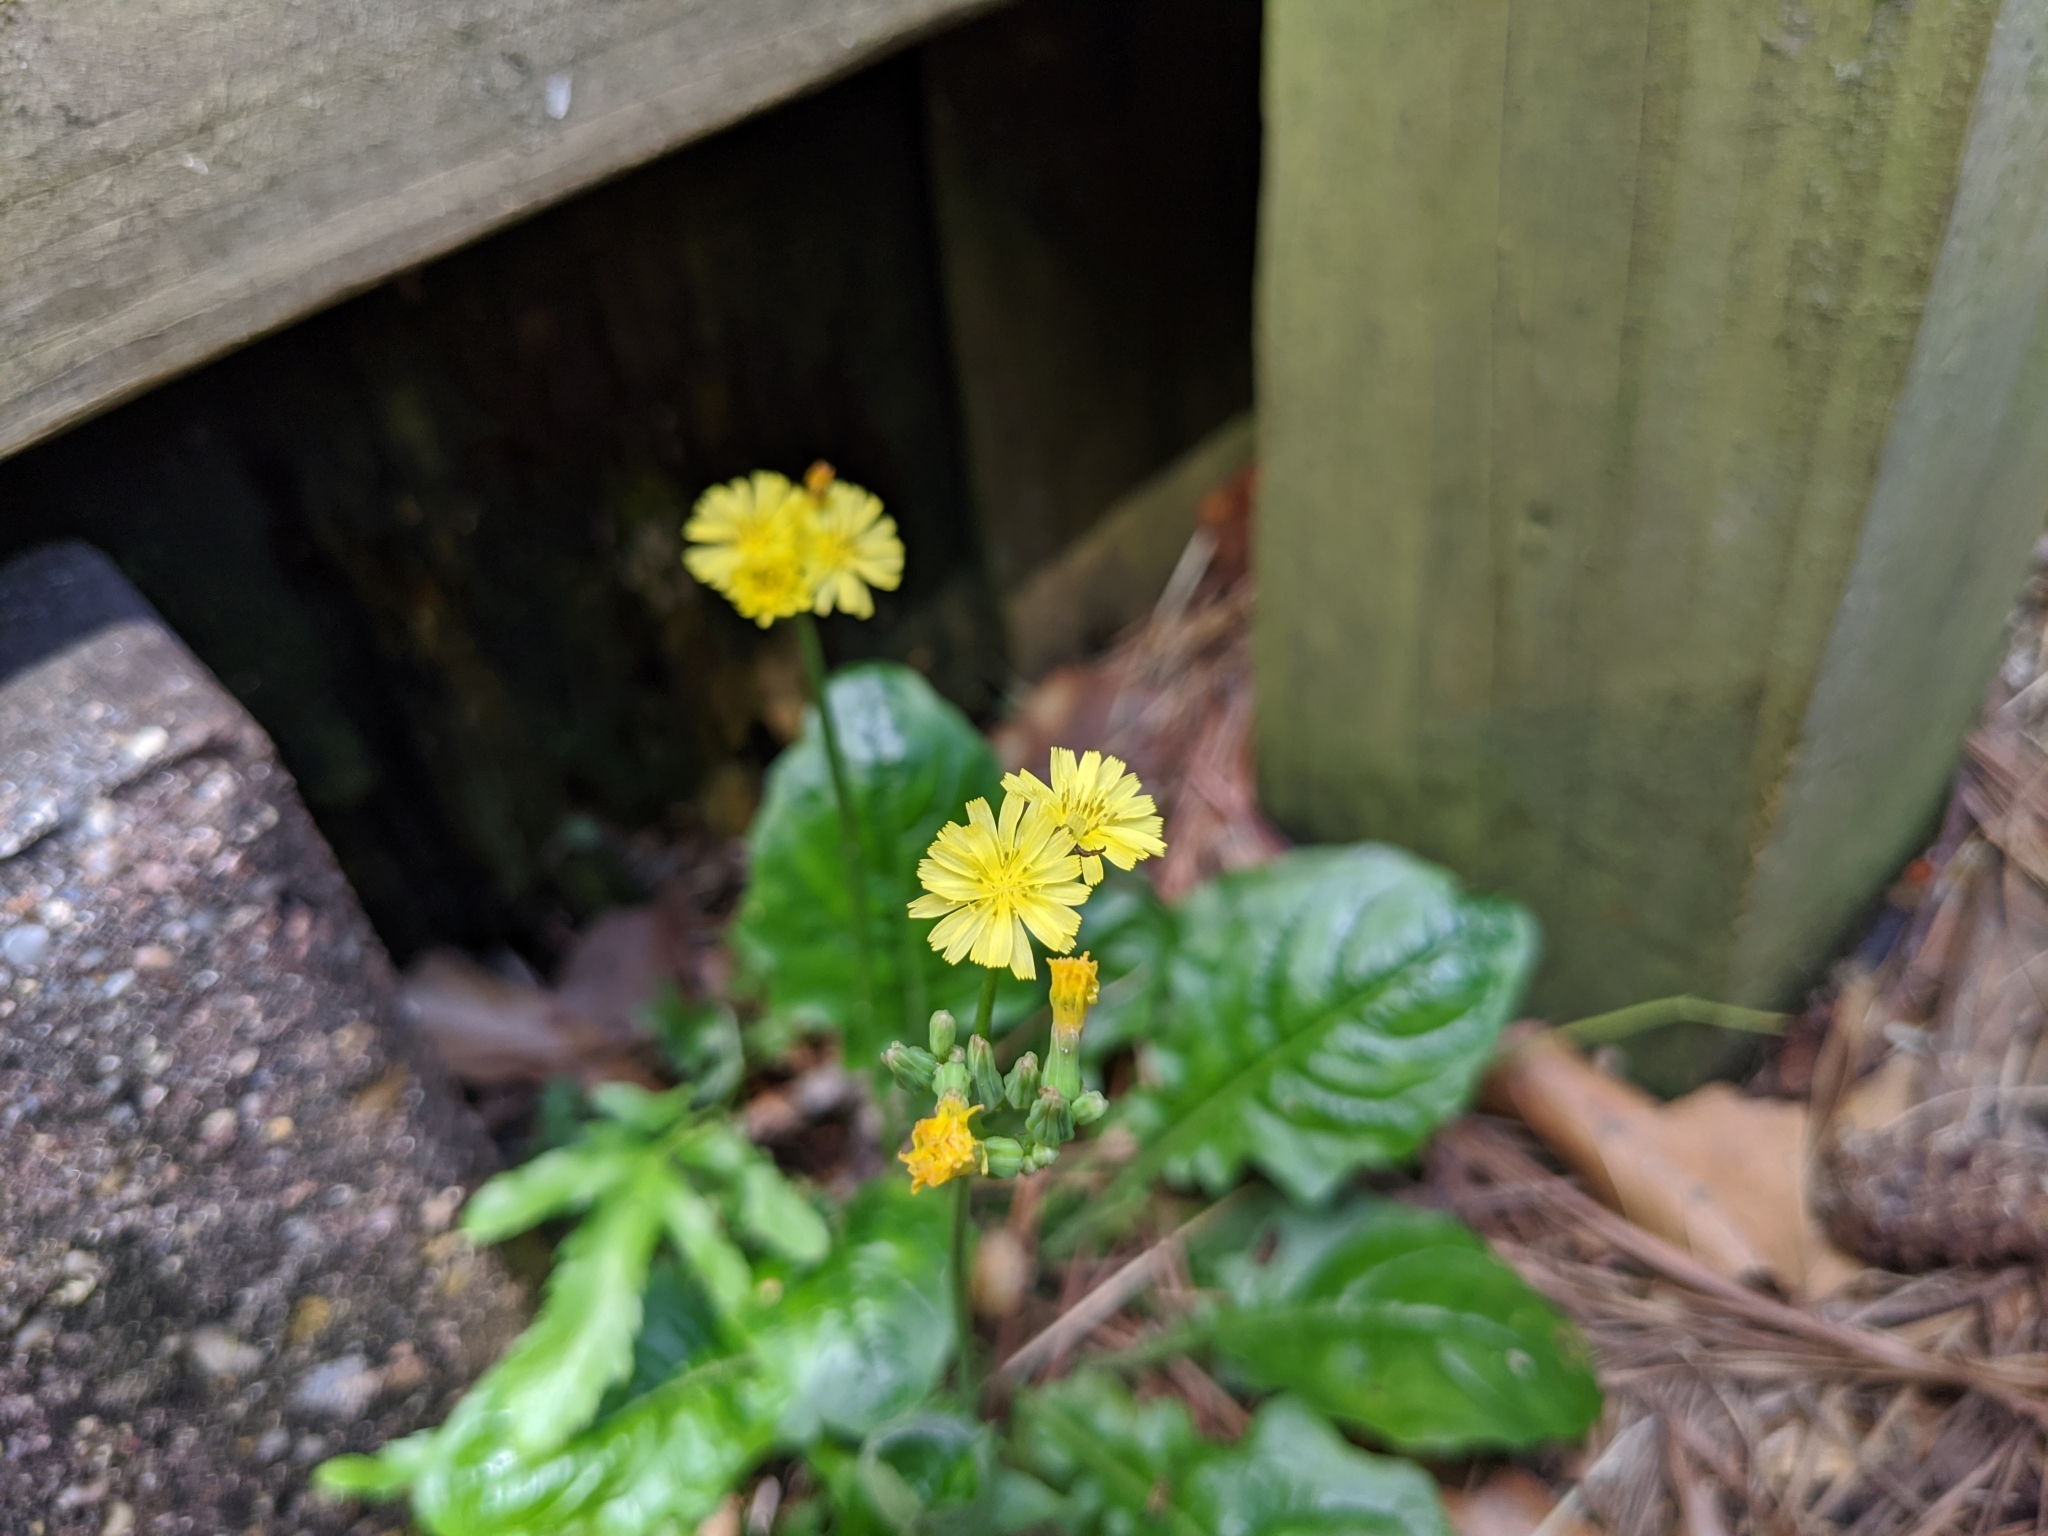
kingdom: Plantae
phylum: Tracheophyta
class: Magnoliopsida
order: Asterales
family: Asteraceae
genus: Youngia
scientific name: Youngia japonica
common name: Oriental false hawksbeard
